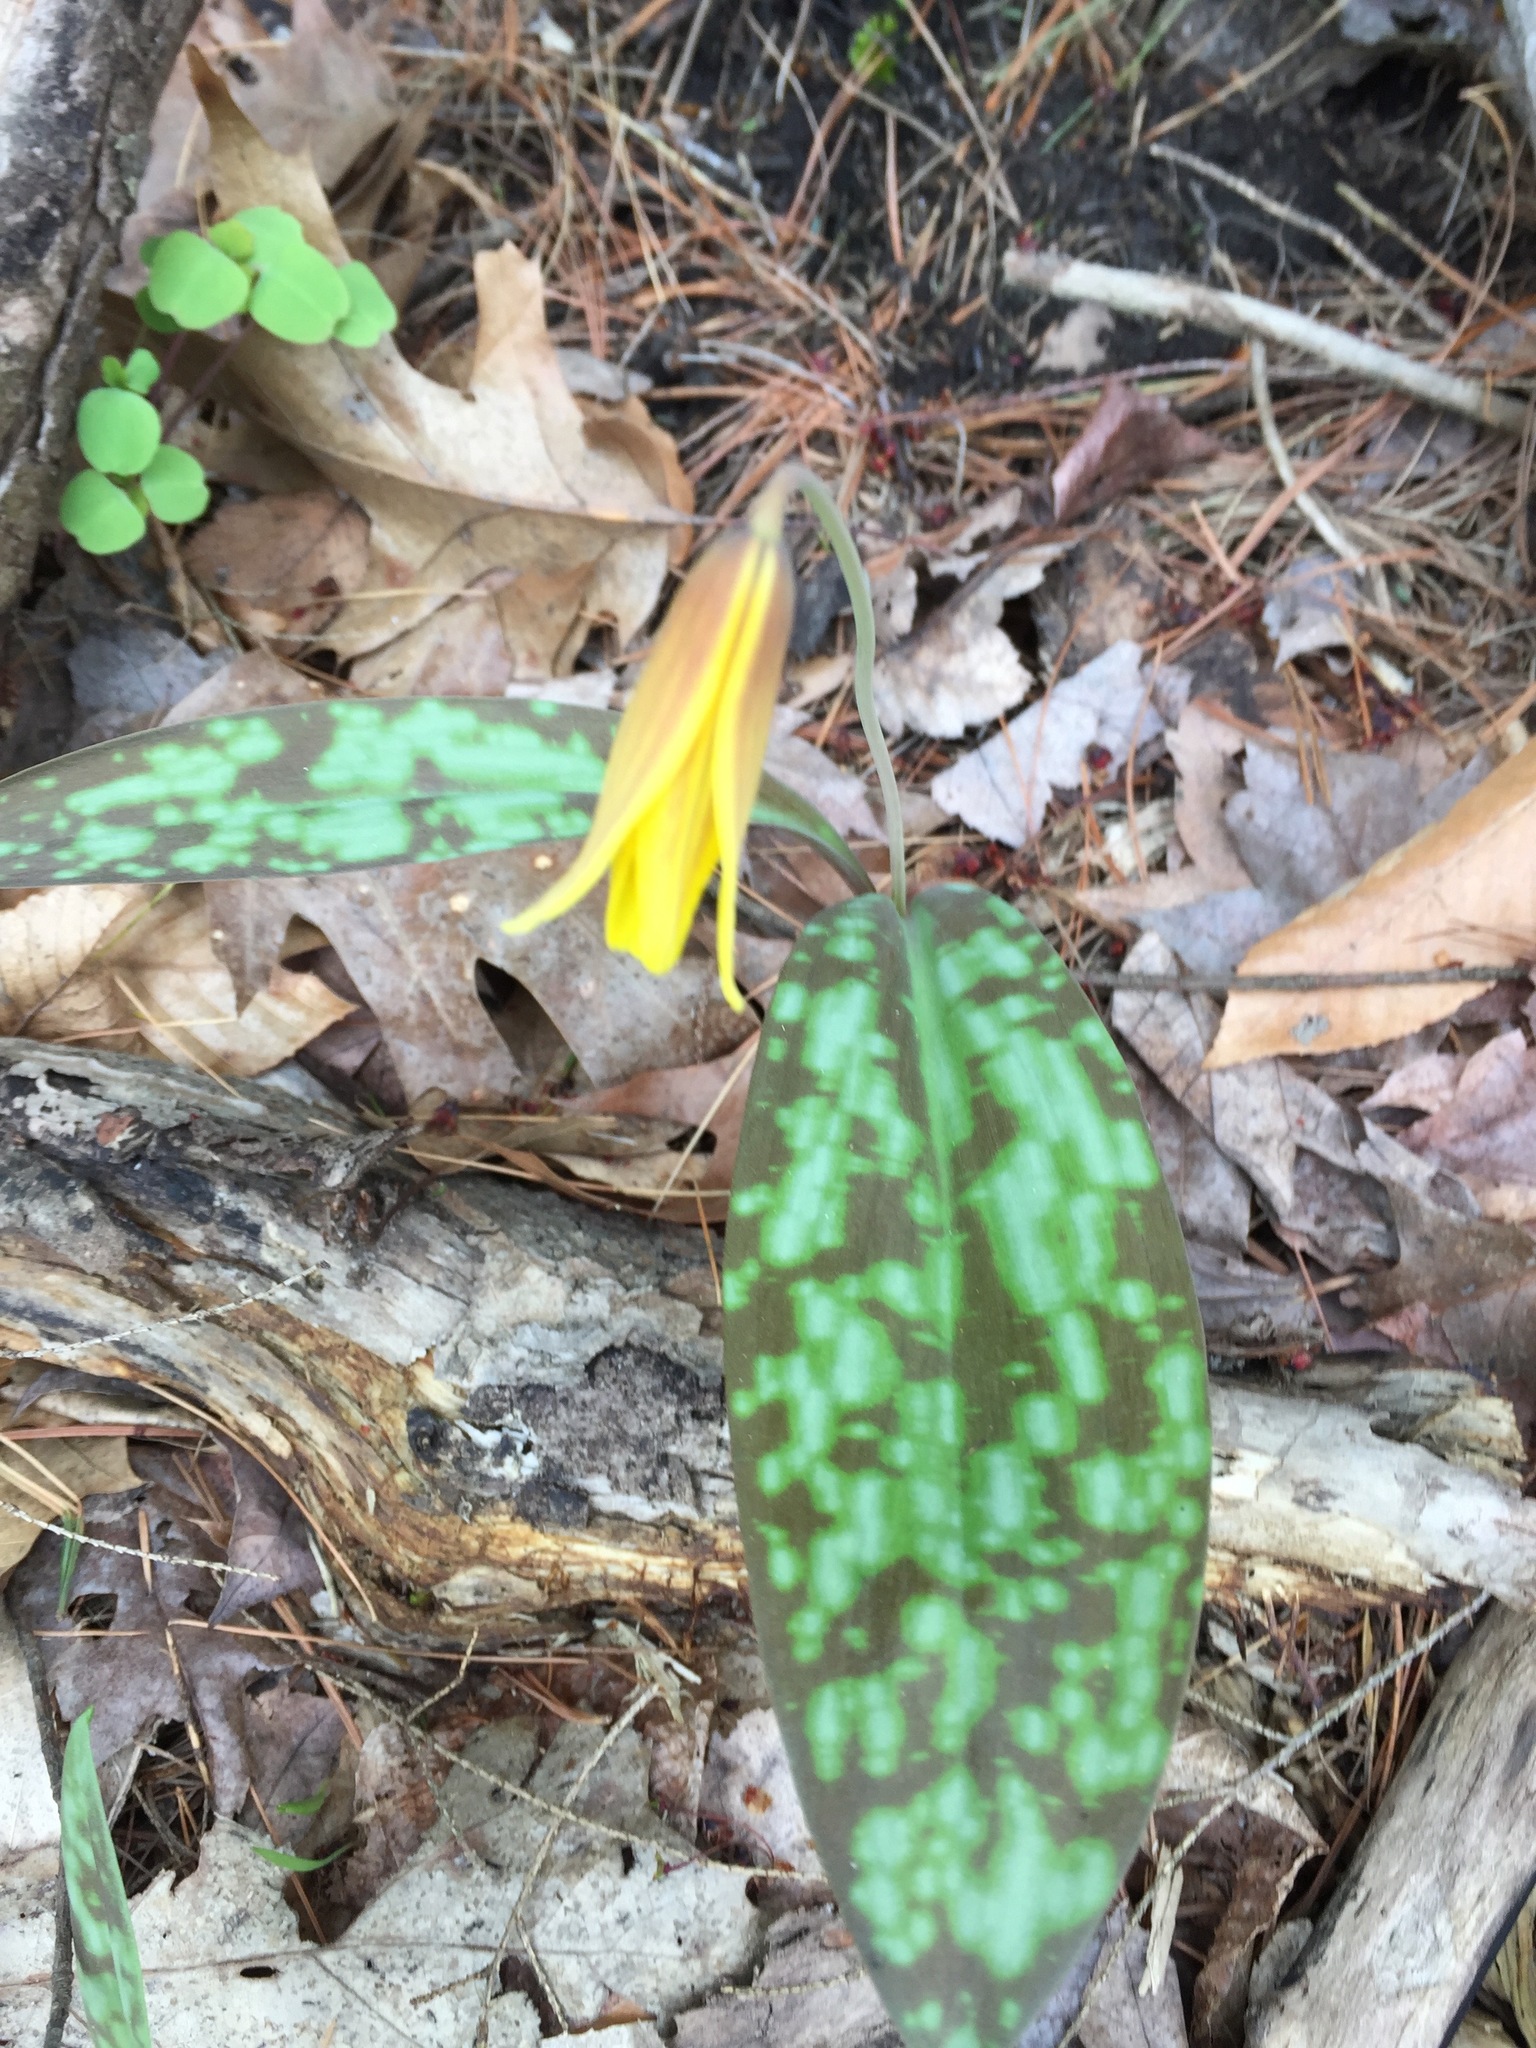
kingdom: Plantae
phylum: Tracheophyta
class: Liliopsida
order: Liliales
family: Liliaceae
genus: Erythronium
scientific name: Erythronium americanum
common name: Yellow adder's-tongue
